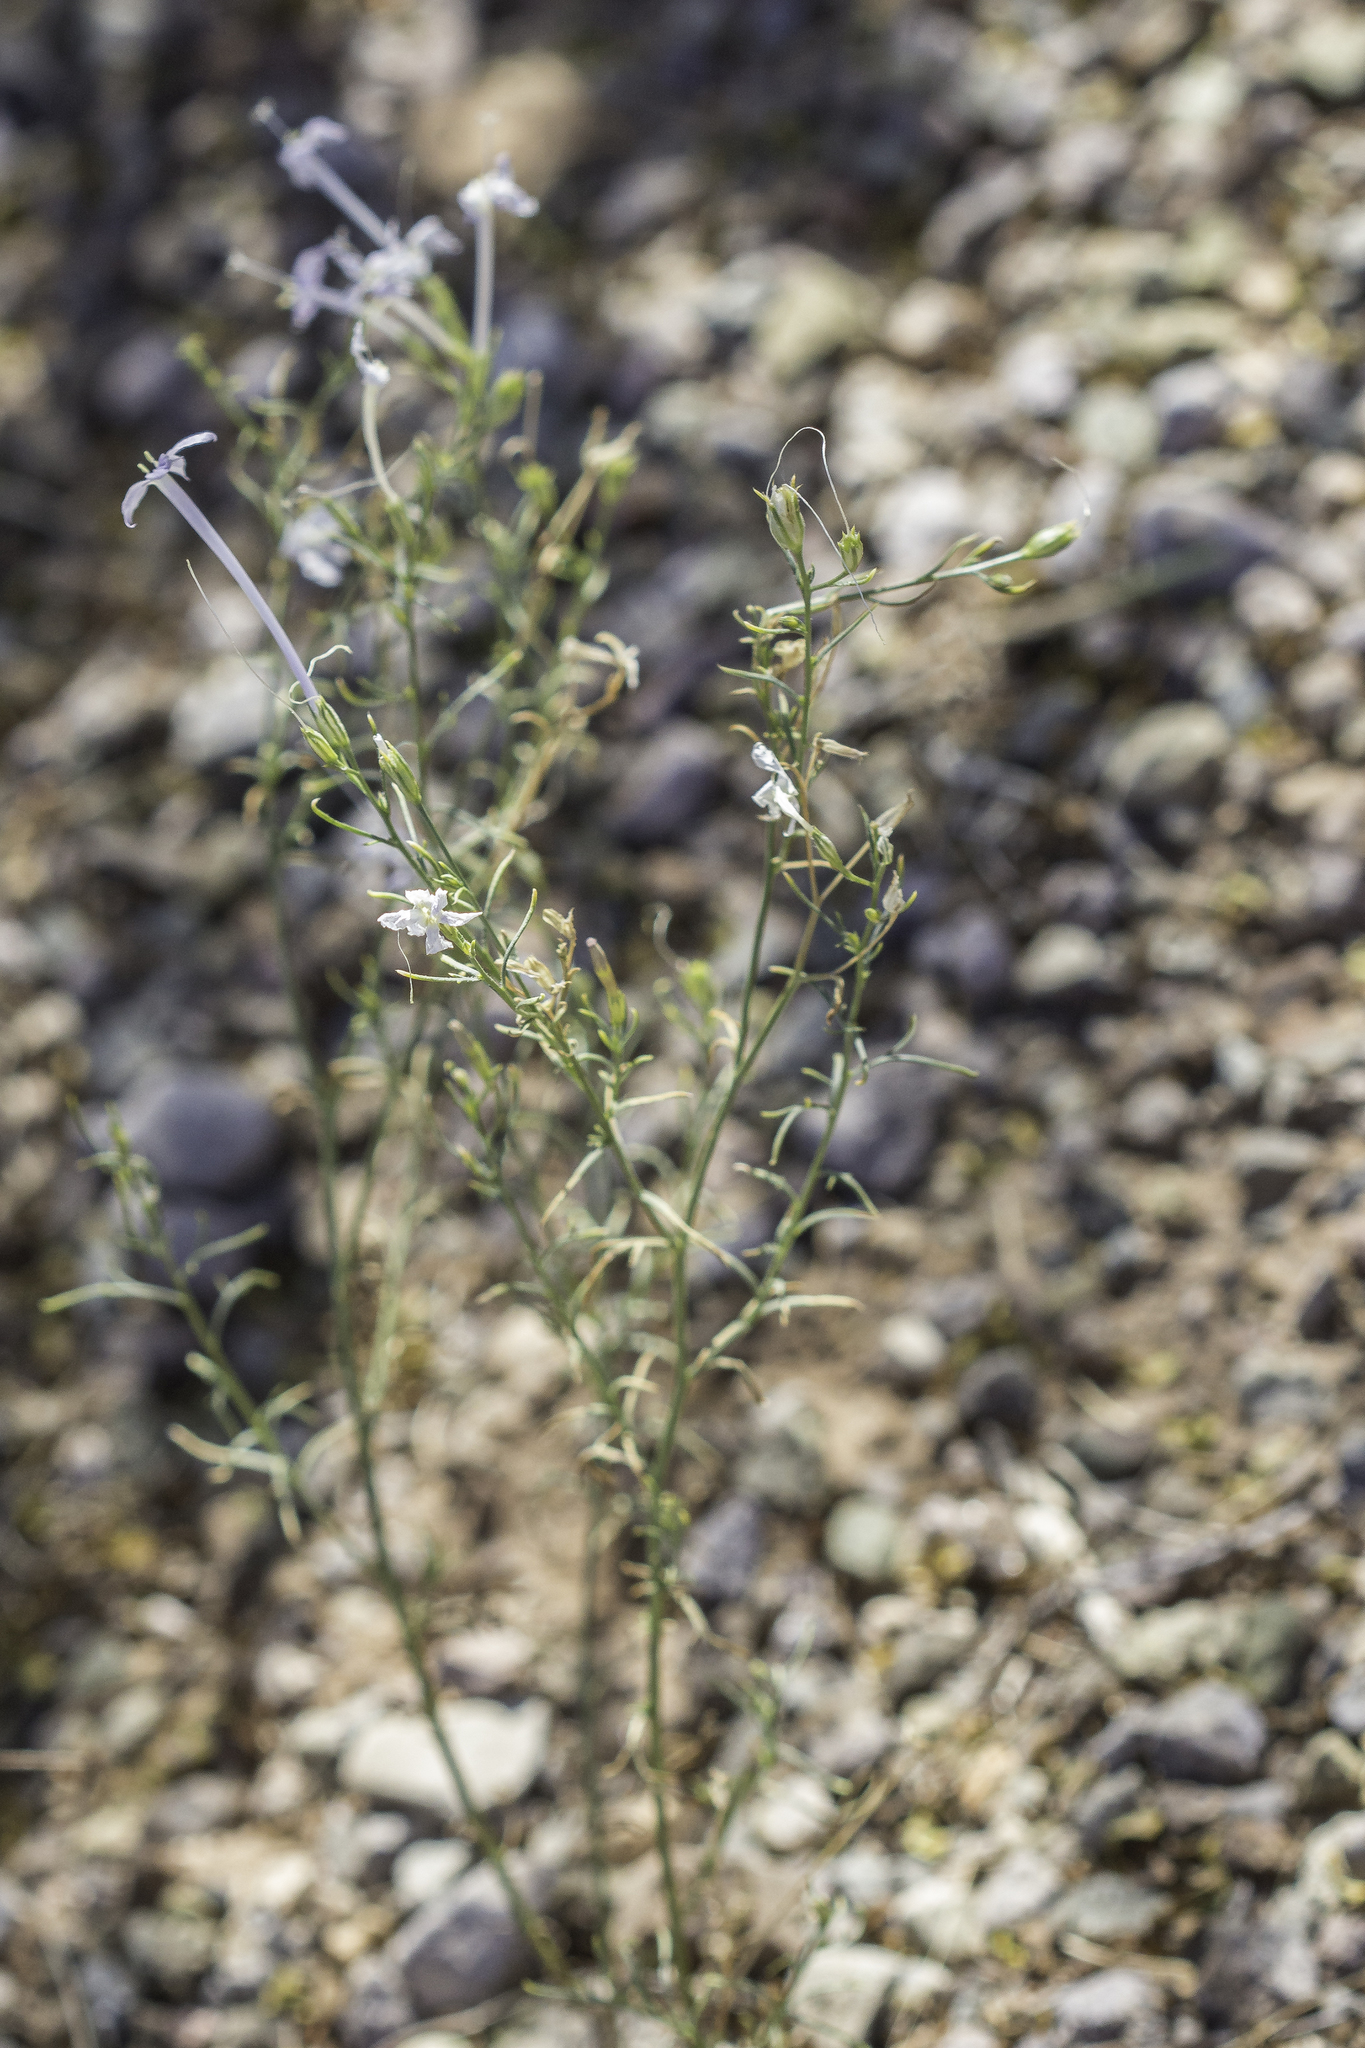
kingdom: Plantae
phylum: Tracheophyta
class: Magnoliopsida
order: Ericales
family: Polemoniaceae
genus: Ipomopsis
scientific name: Ipomopsis longiflora
